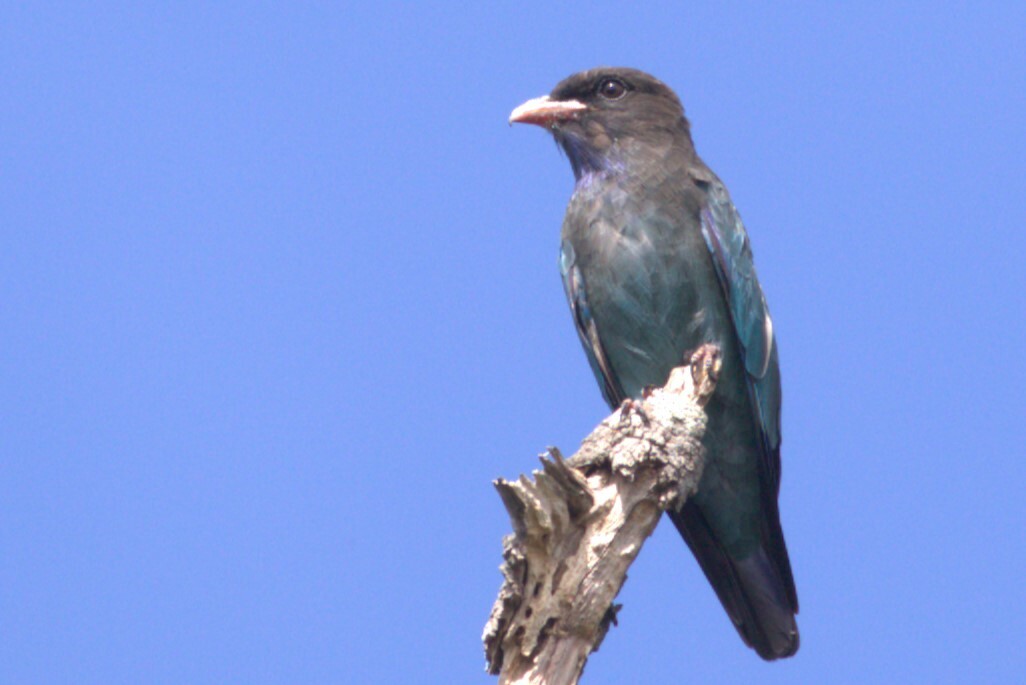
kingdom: Animalia
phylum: Chordata
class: Aves
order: Coraciiformes
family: Coraciidae
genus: Eurystomus
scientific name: Eurystomus orientalis
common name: Oriental dollarbird
